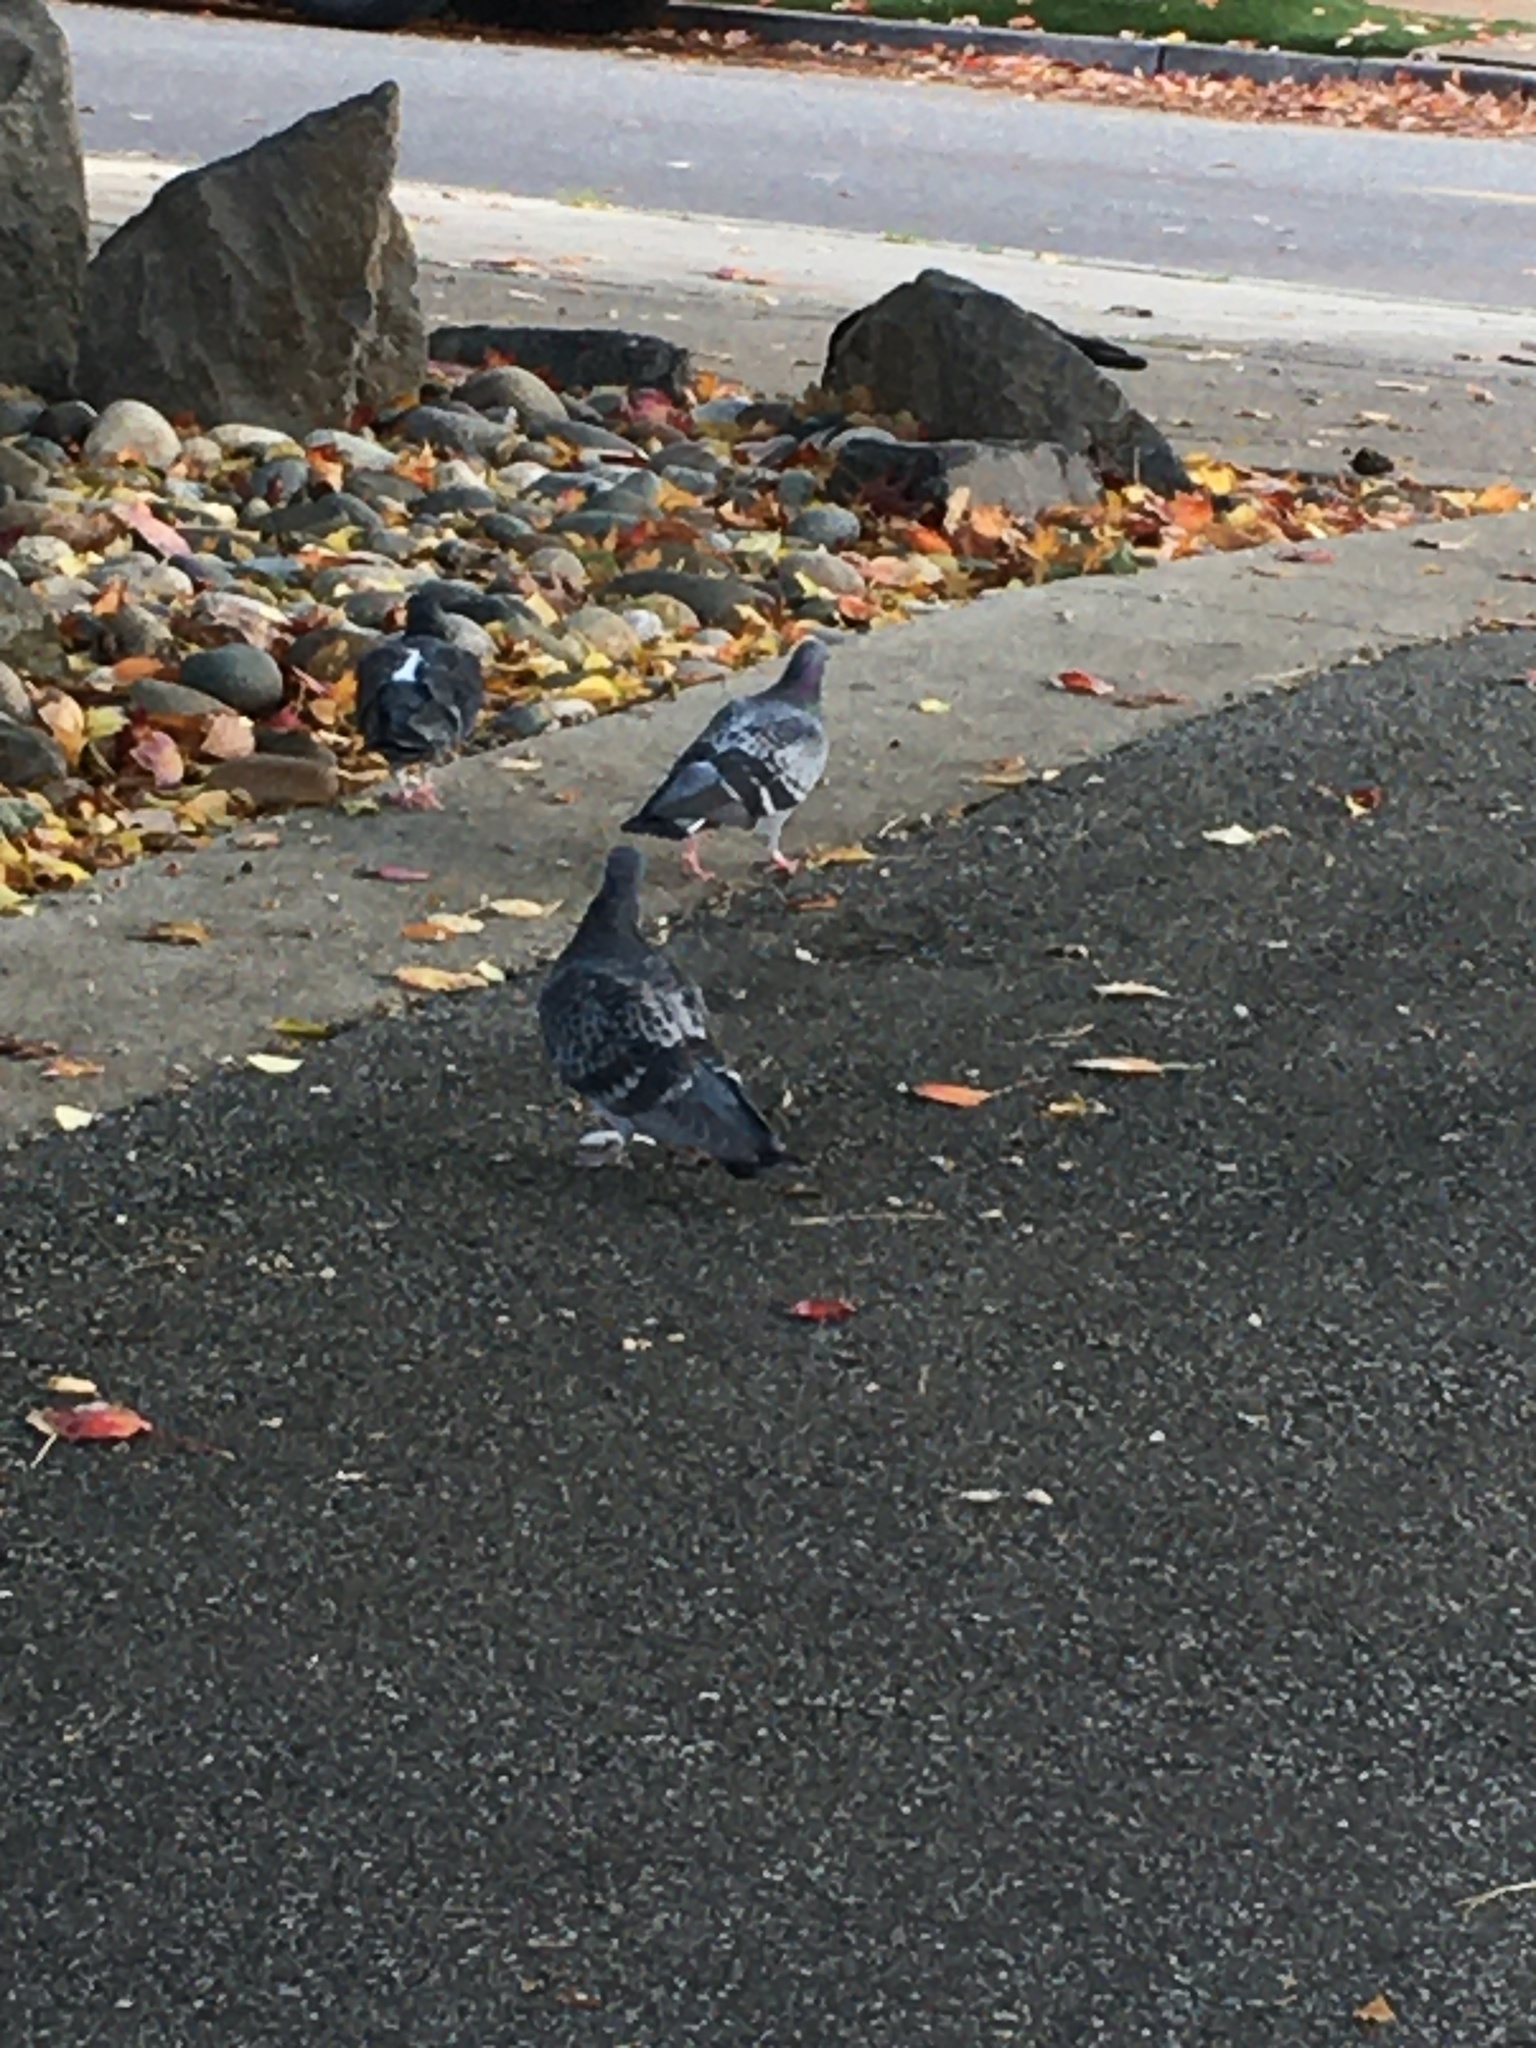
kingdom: Animalia
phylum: Chordata
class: Aves
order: Columbiformes
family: Columbidae
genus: Columba
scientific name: Columba livia
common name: Rock pigeon
